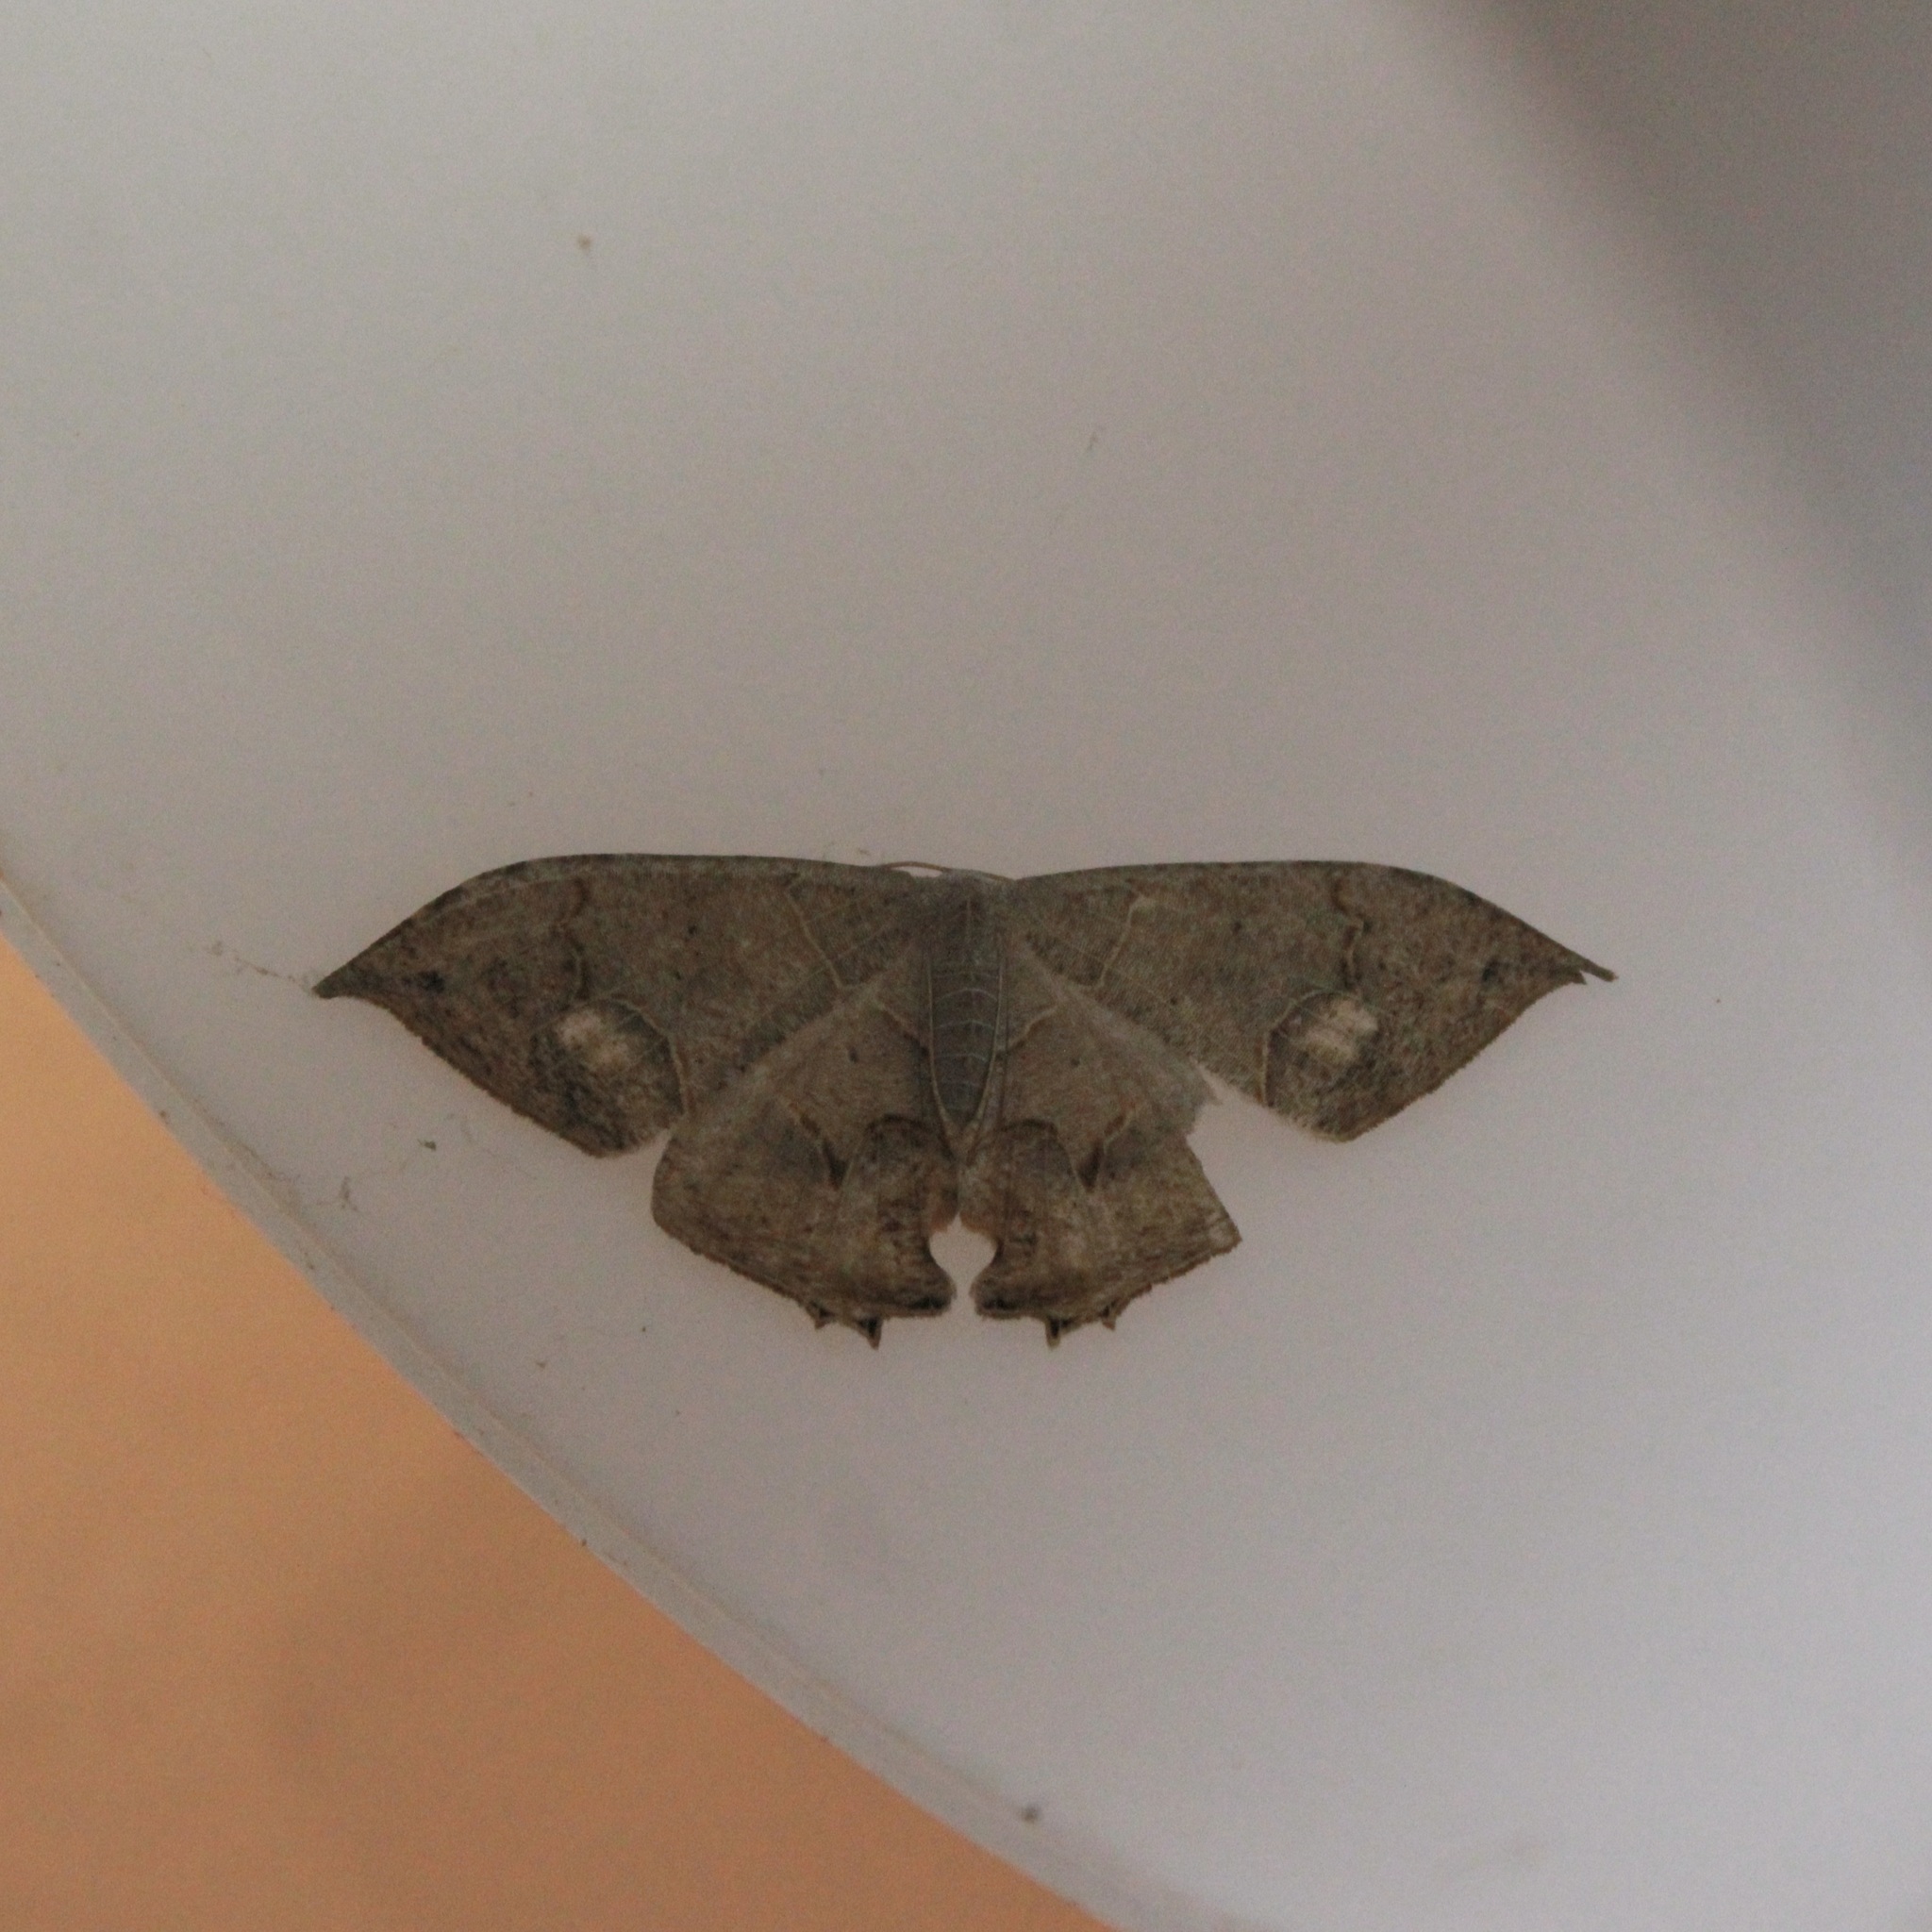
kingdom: Animalia
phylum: Arthropoda
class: Insecta
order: Lepidoptera
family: Uraniidae
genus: Syngria
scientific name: Syngria druidaria
